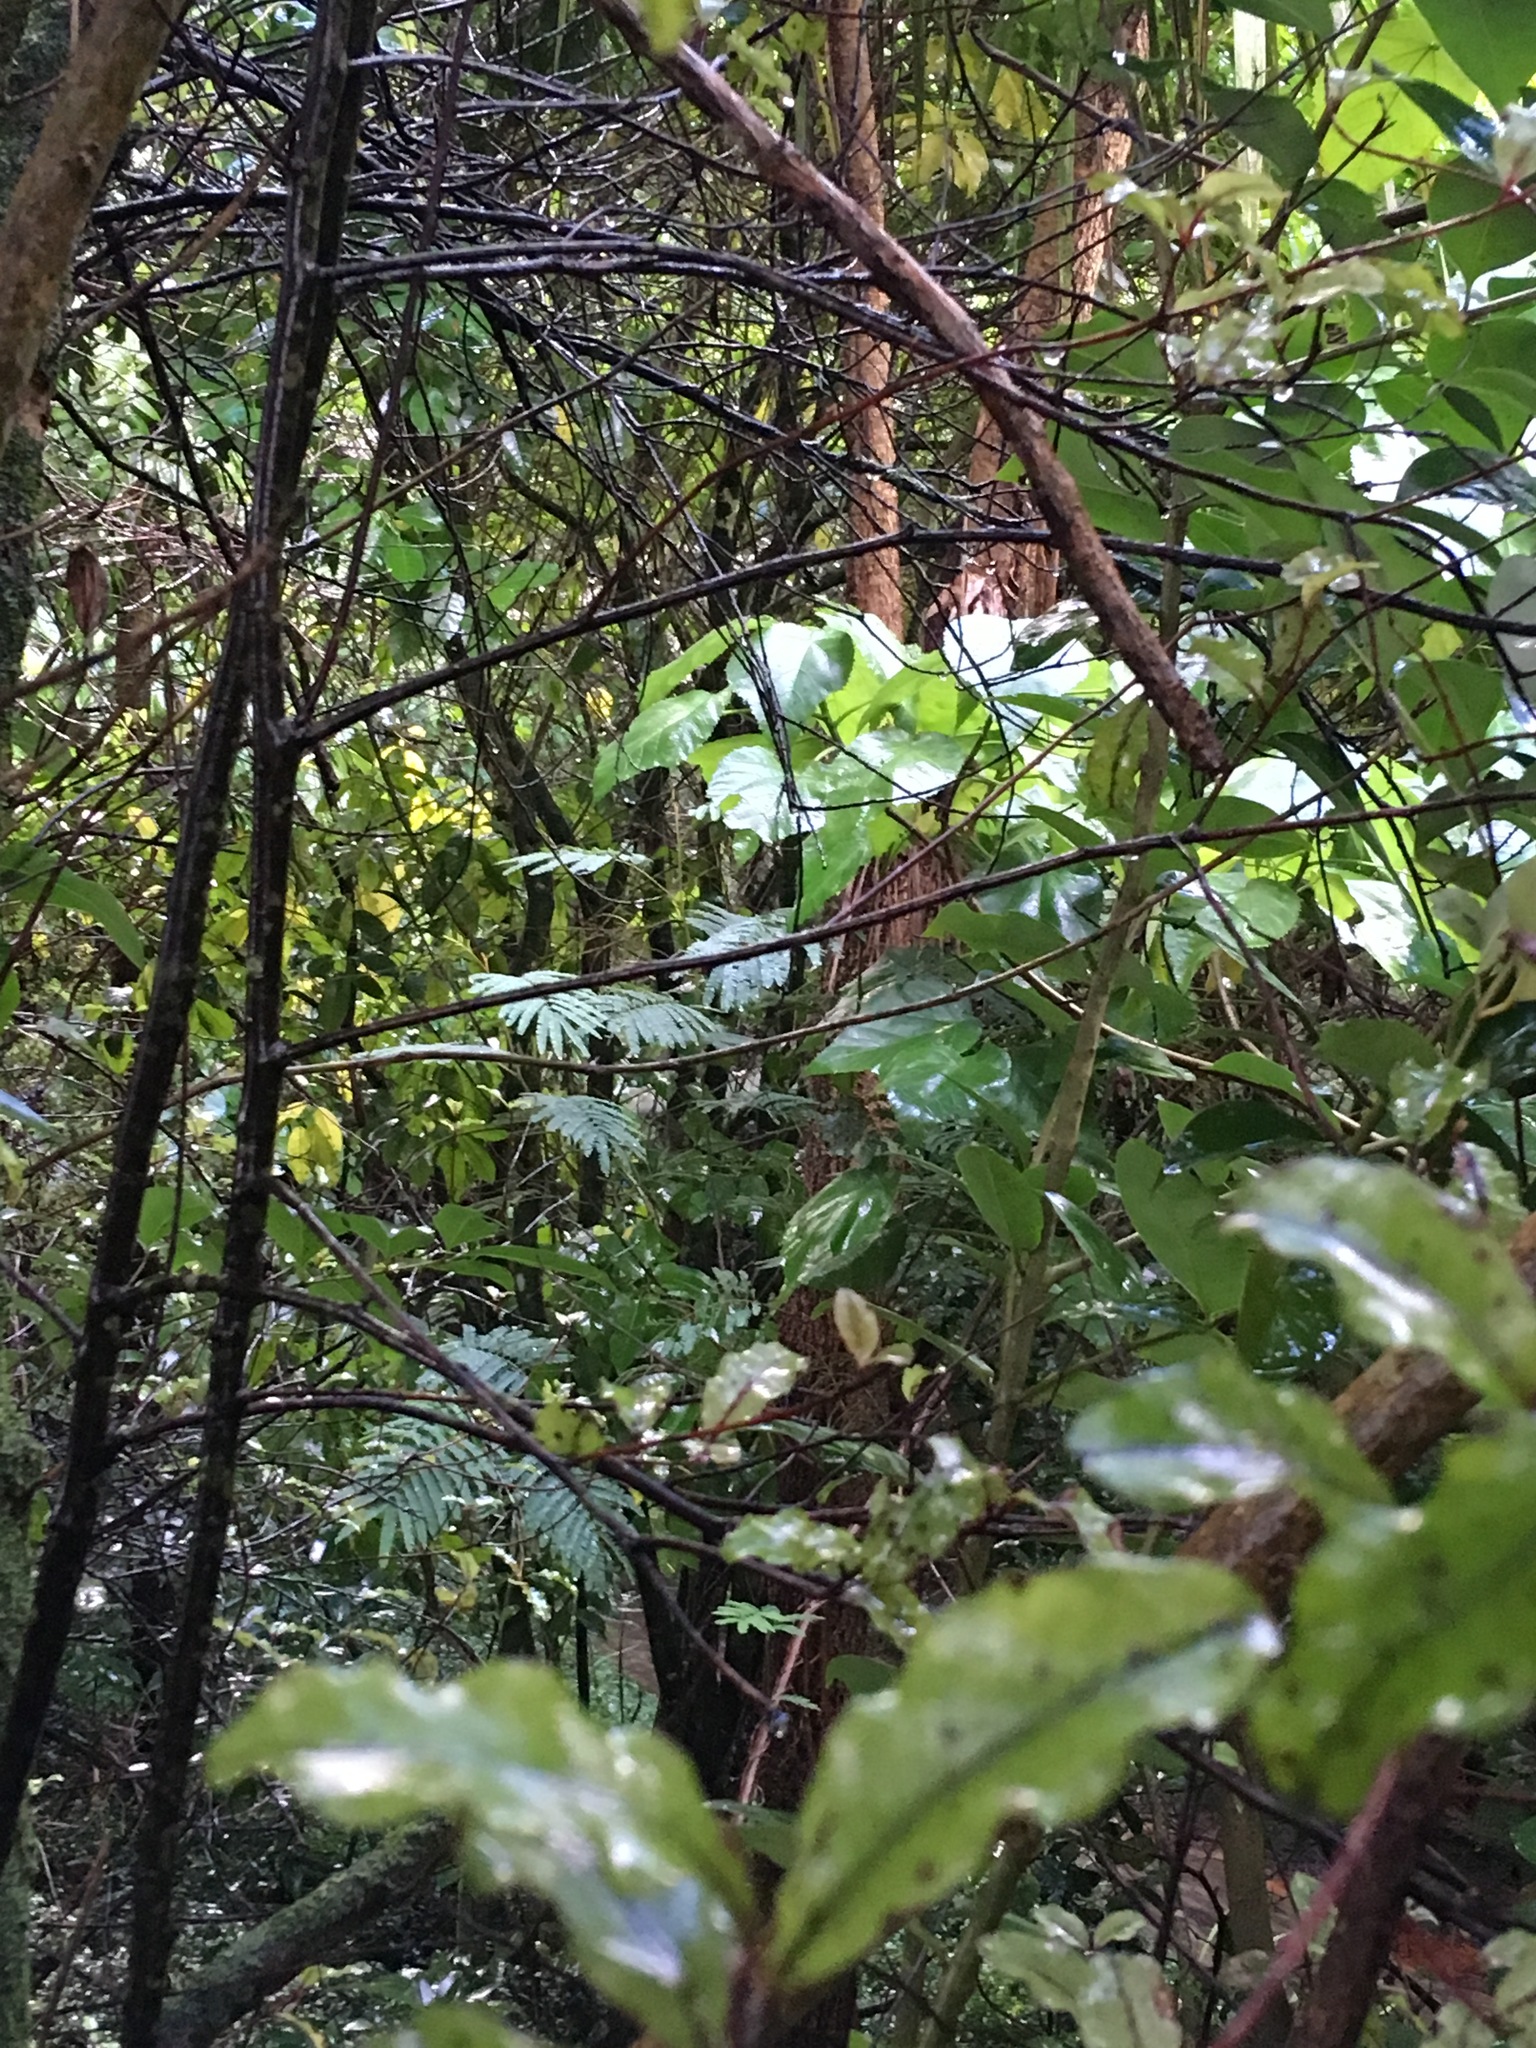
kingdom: Plantae
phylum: Tracheophyta
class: Magnoliopsida
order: Fabales
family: Fabaceae
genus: Paraserianthes
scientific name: Paraserianthes lophantha
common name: Plume albizia
